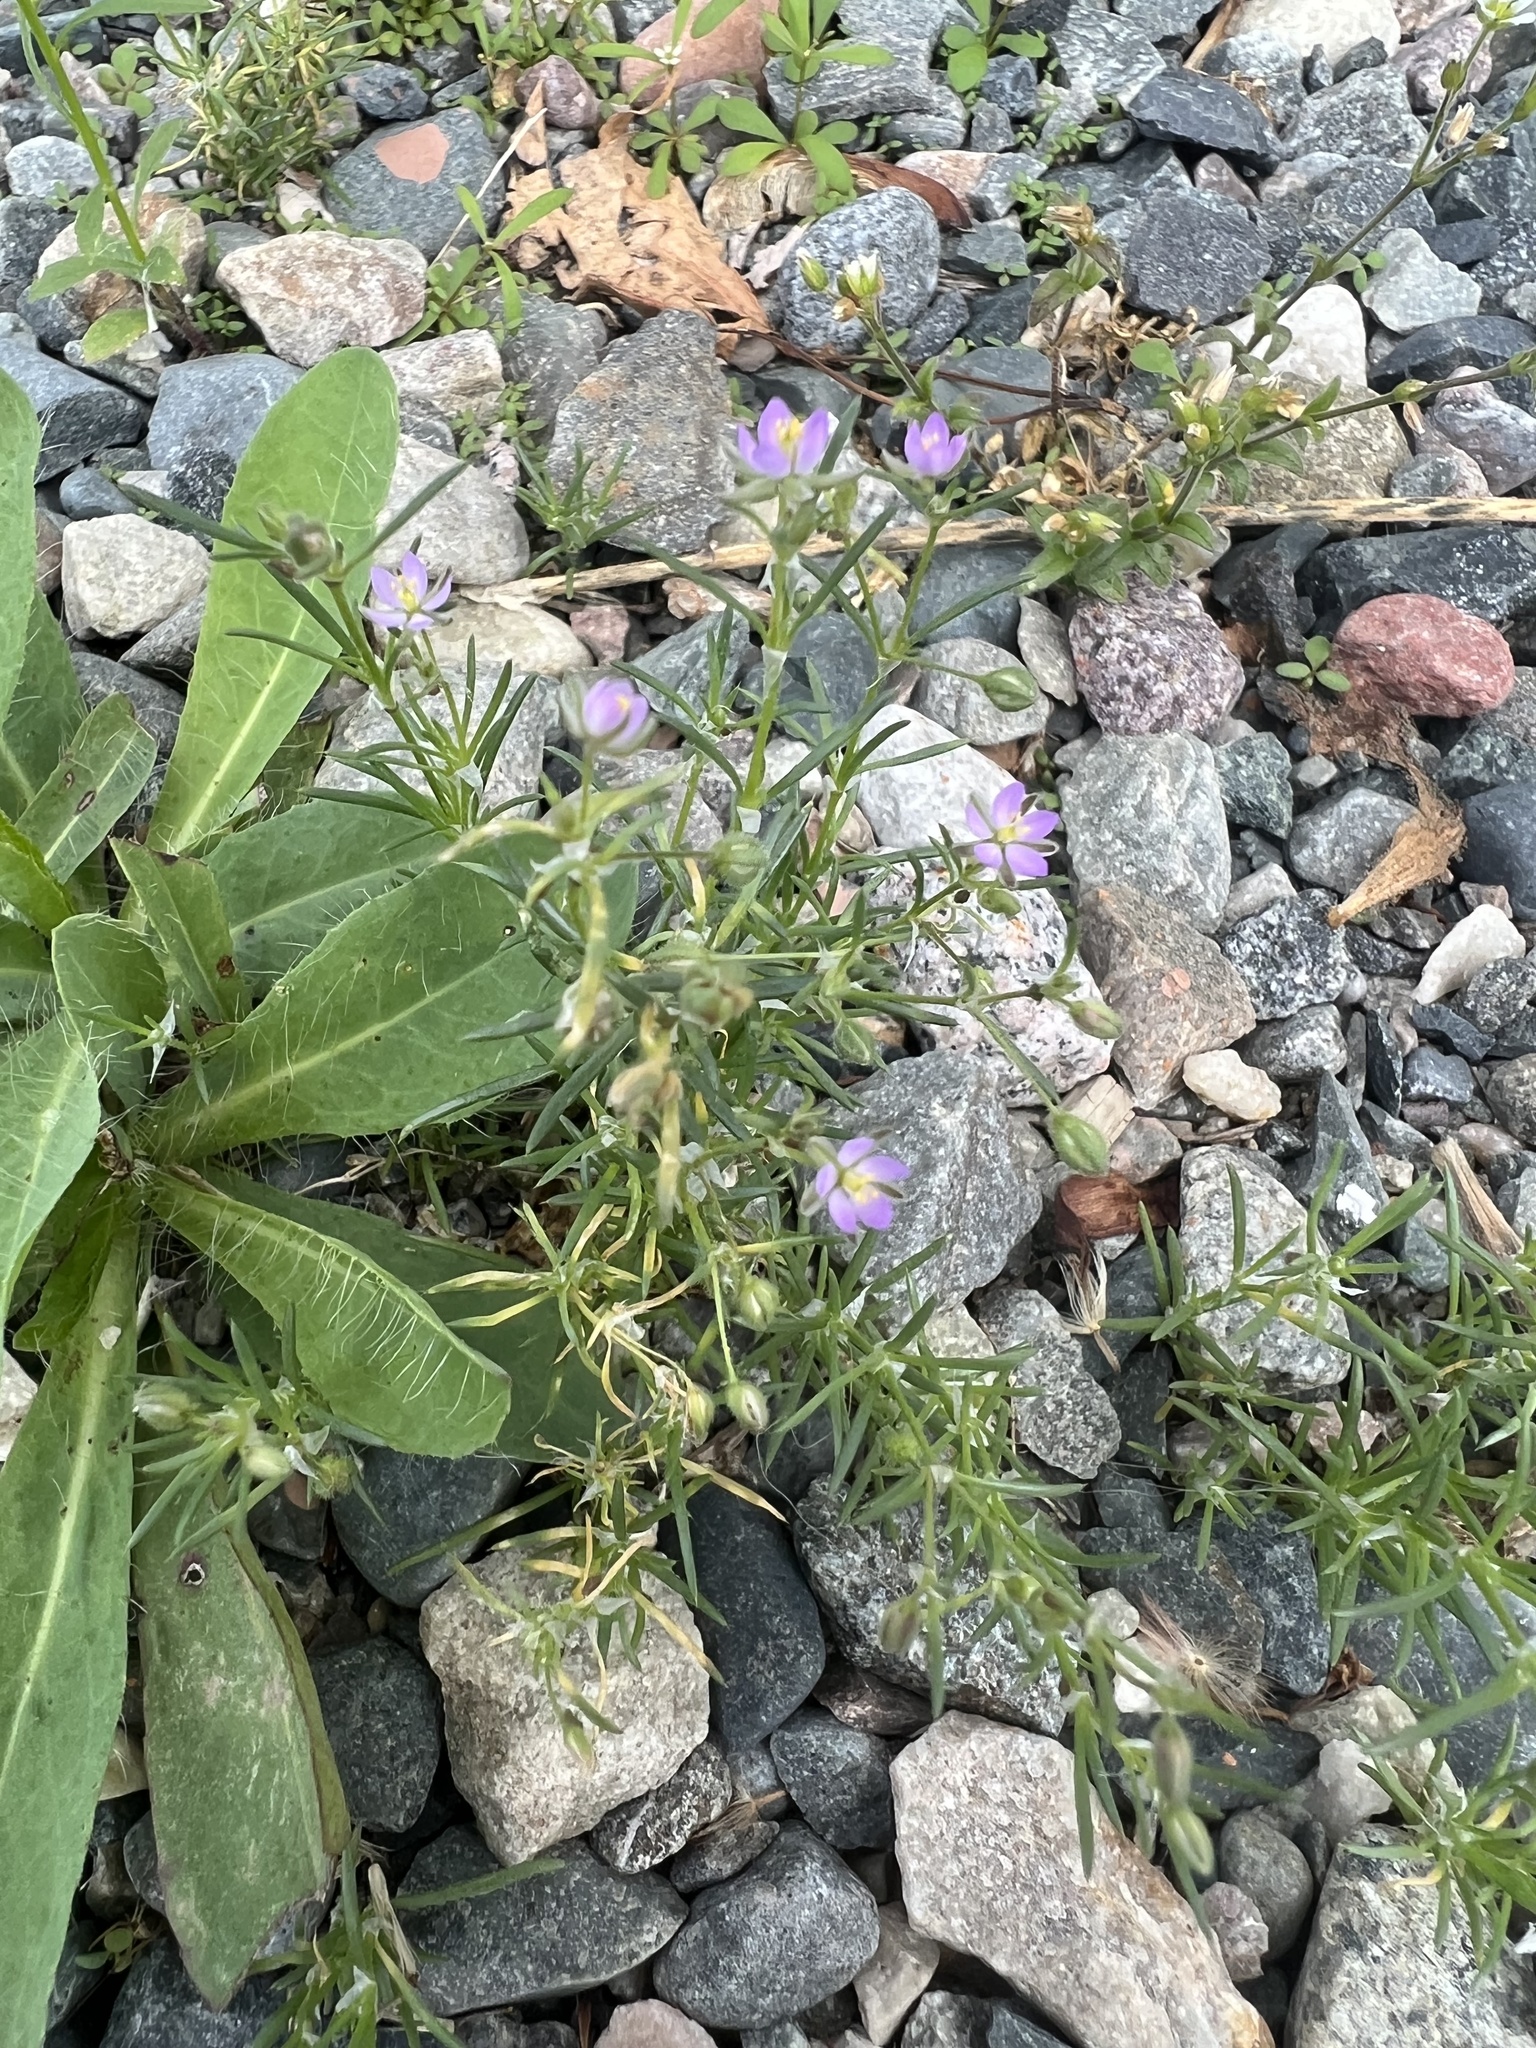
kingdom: Plantae
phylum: Tracheophyta
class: Magnoliopsida
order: Caryophyllales
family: Caryophyllaceae
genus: Spergularia
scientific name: Spergularia rubra
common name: Red sand-spurrey
